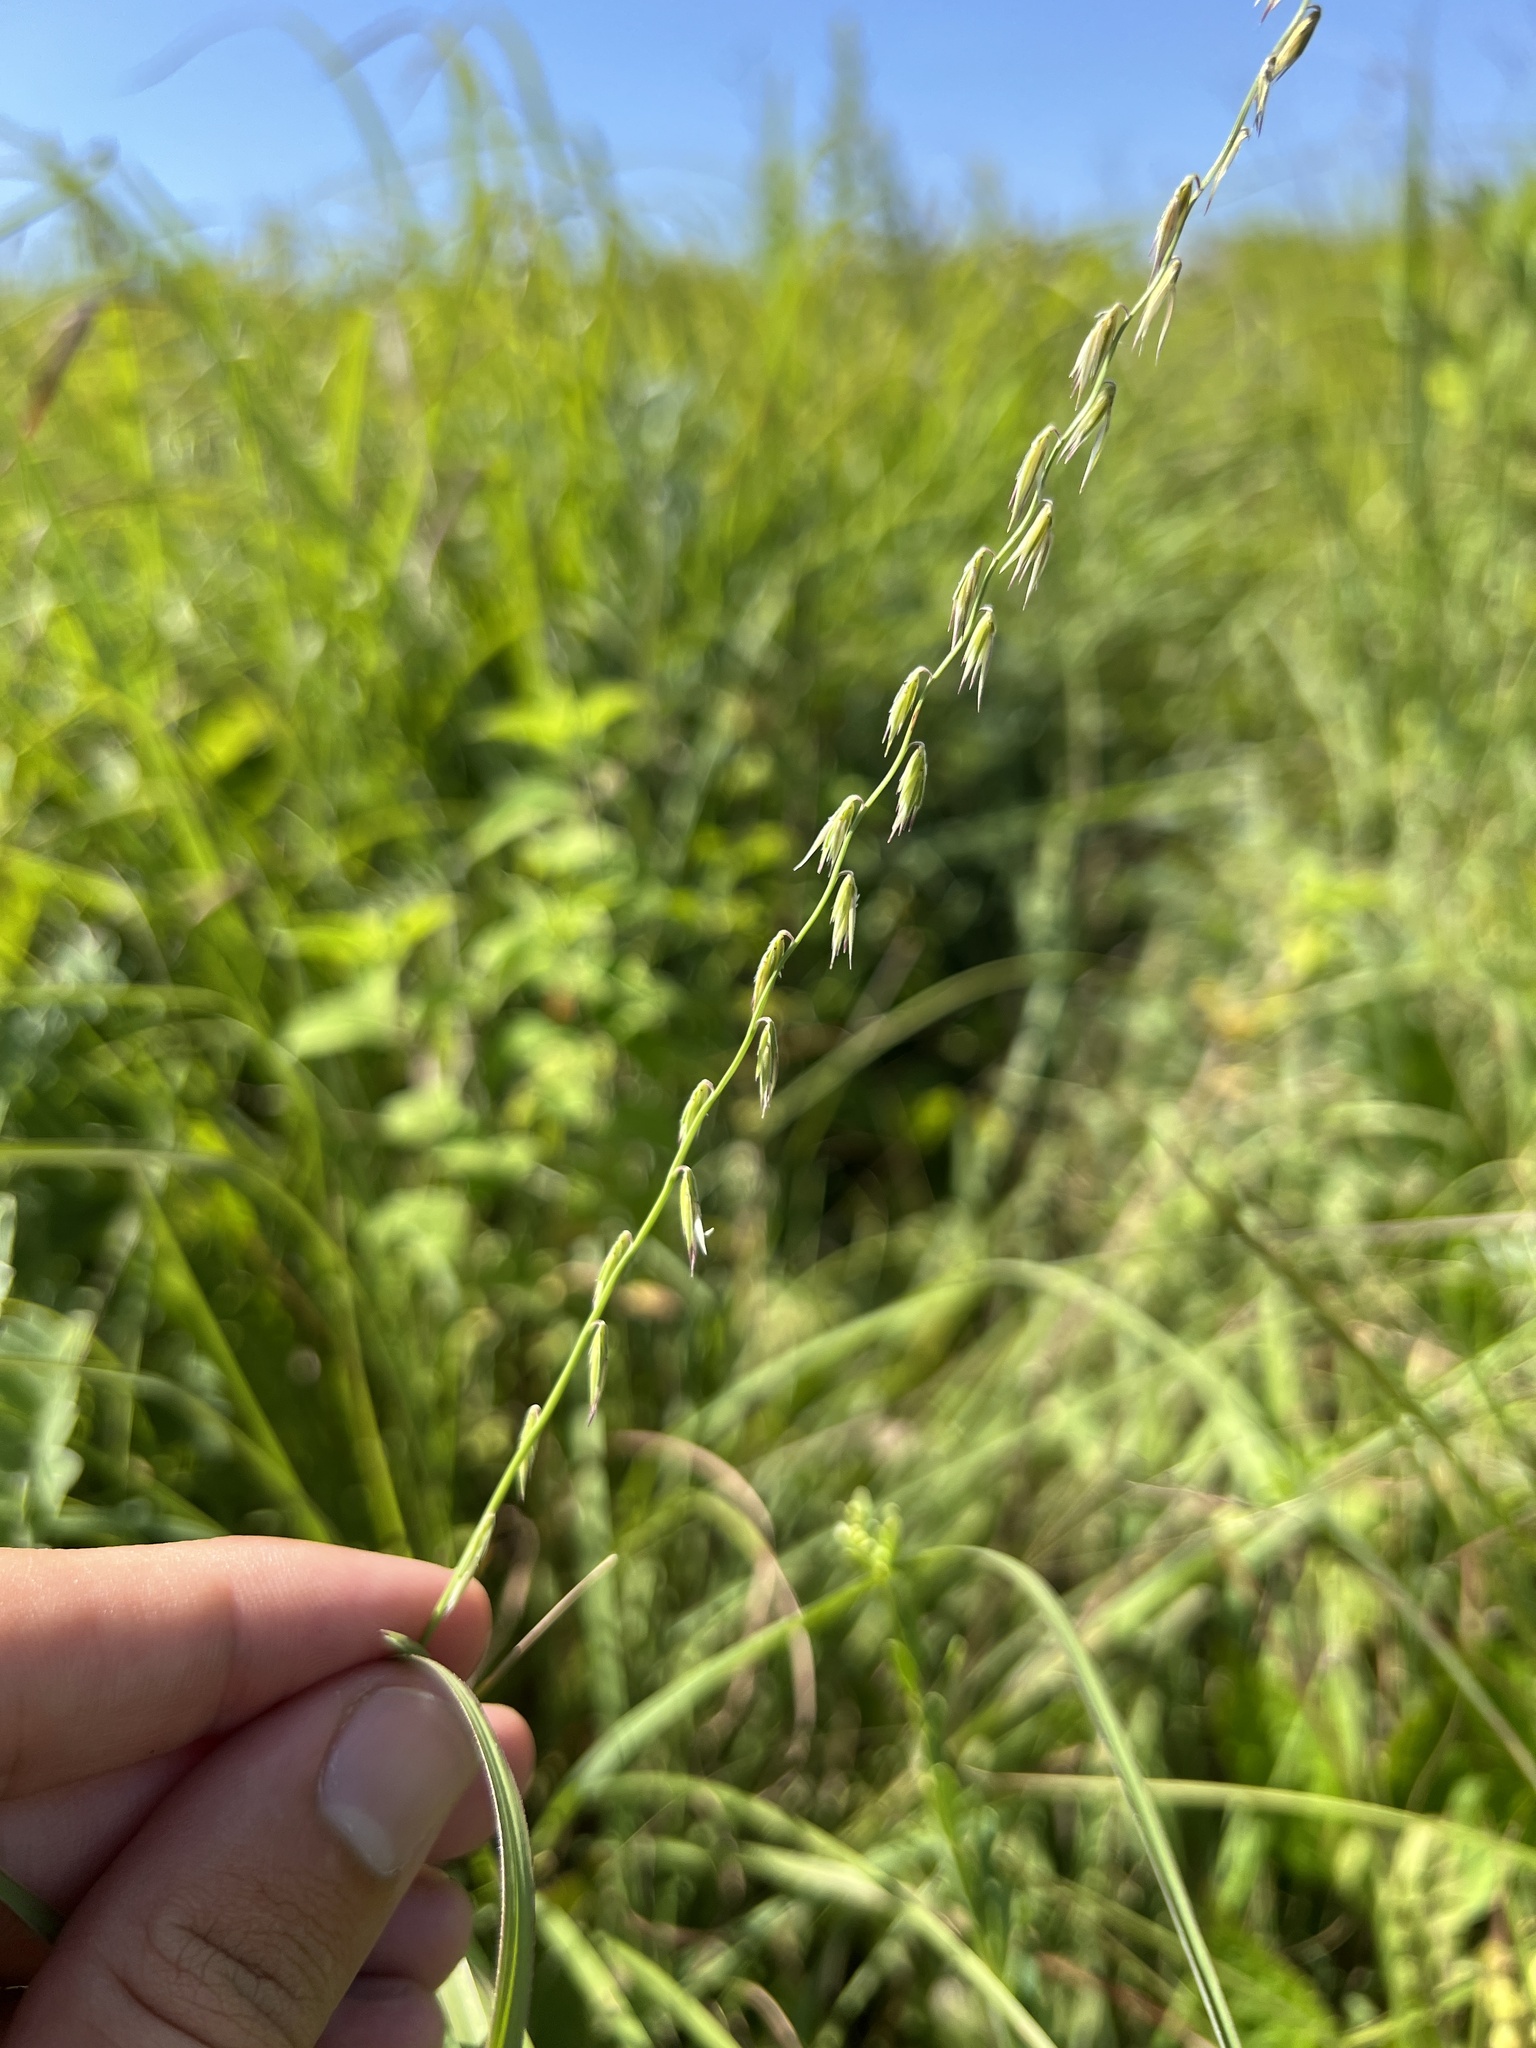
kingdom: Plantae
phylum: Tracheophyta
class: Liliopsida
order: Poales
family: Poaceae
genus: Bouteloua
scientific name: Bouteloua curtipendula
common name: Side-oats grama
